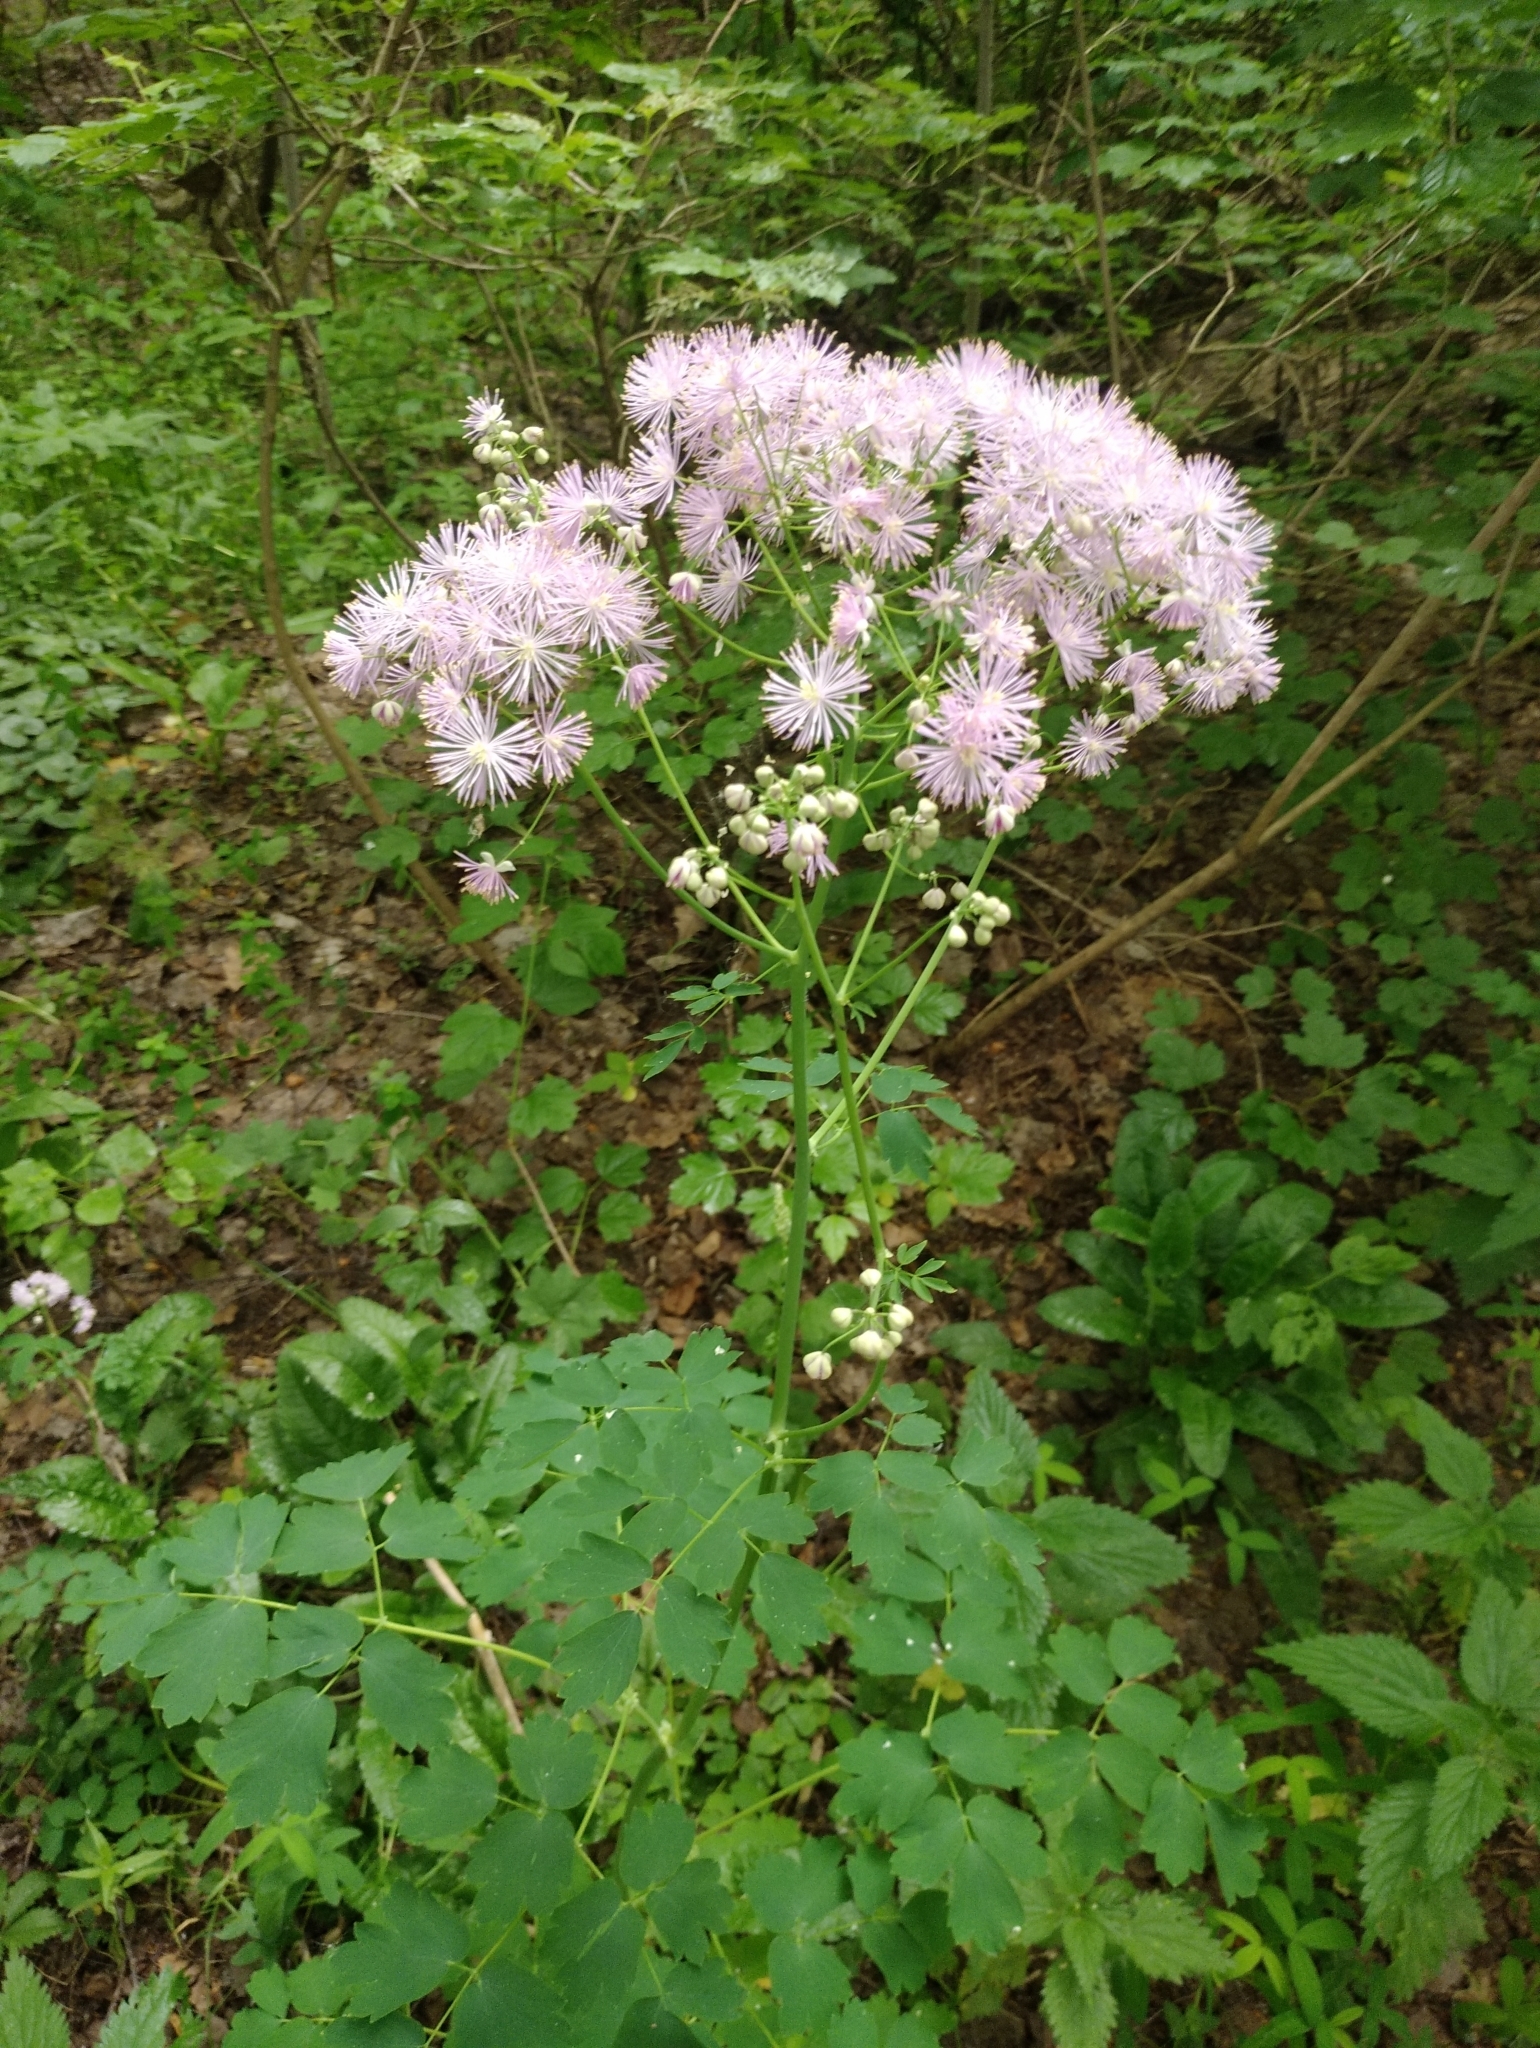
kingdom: Plantae
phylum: Tracheophyta
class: Magnoliopsida
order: Ranunculales
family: Ranunculaceae
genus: Thalictrum
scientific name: Thalictrum aquilegiifolium
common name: French meadow-rue
